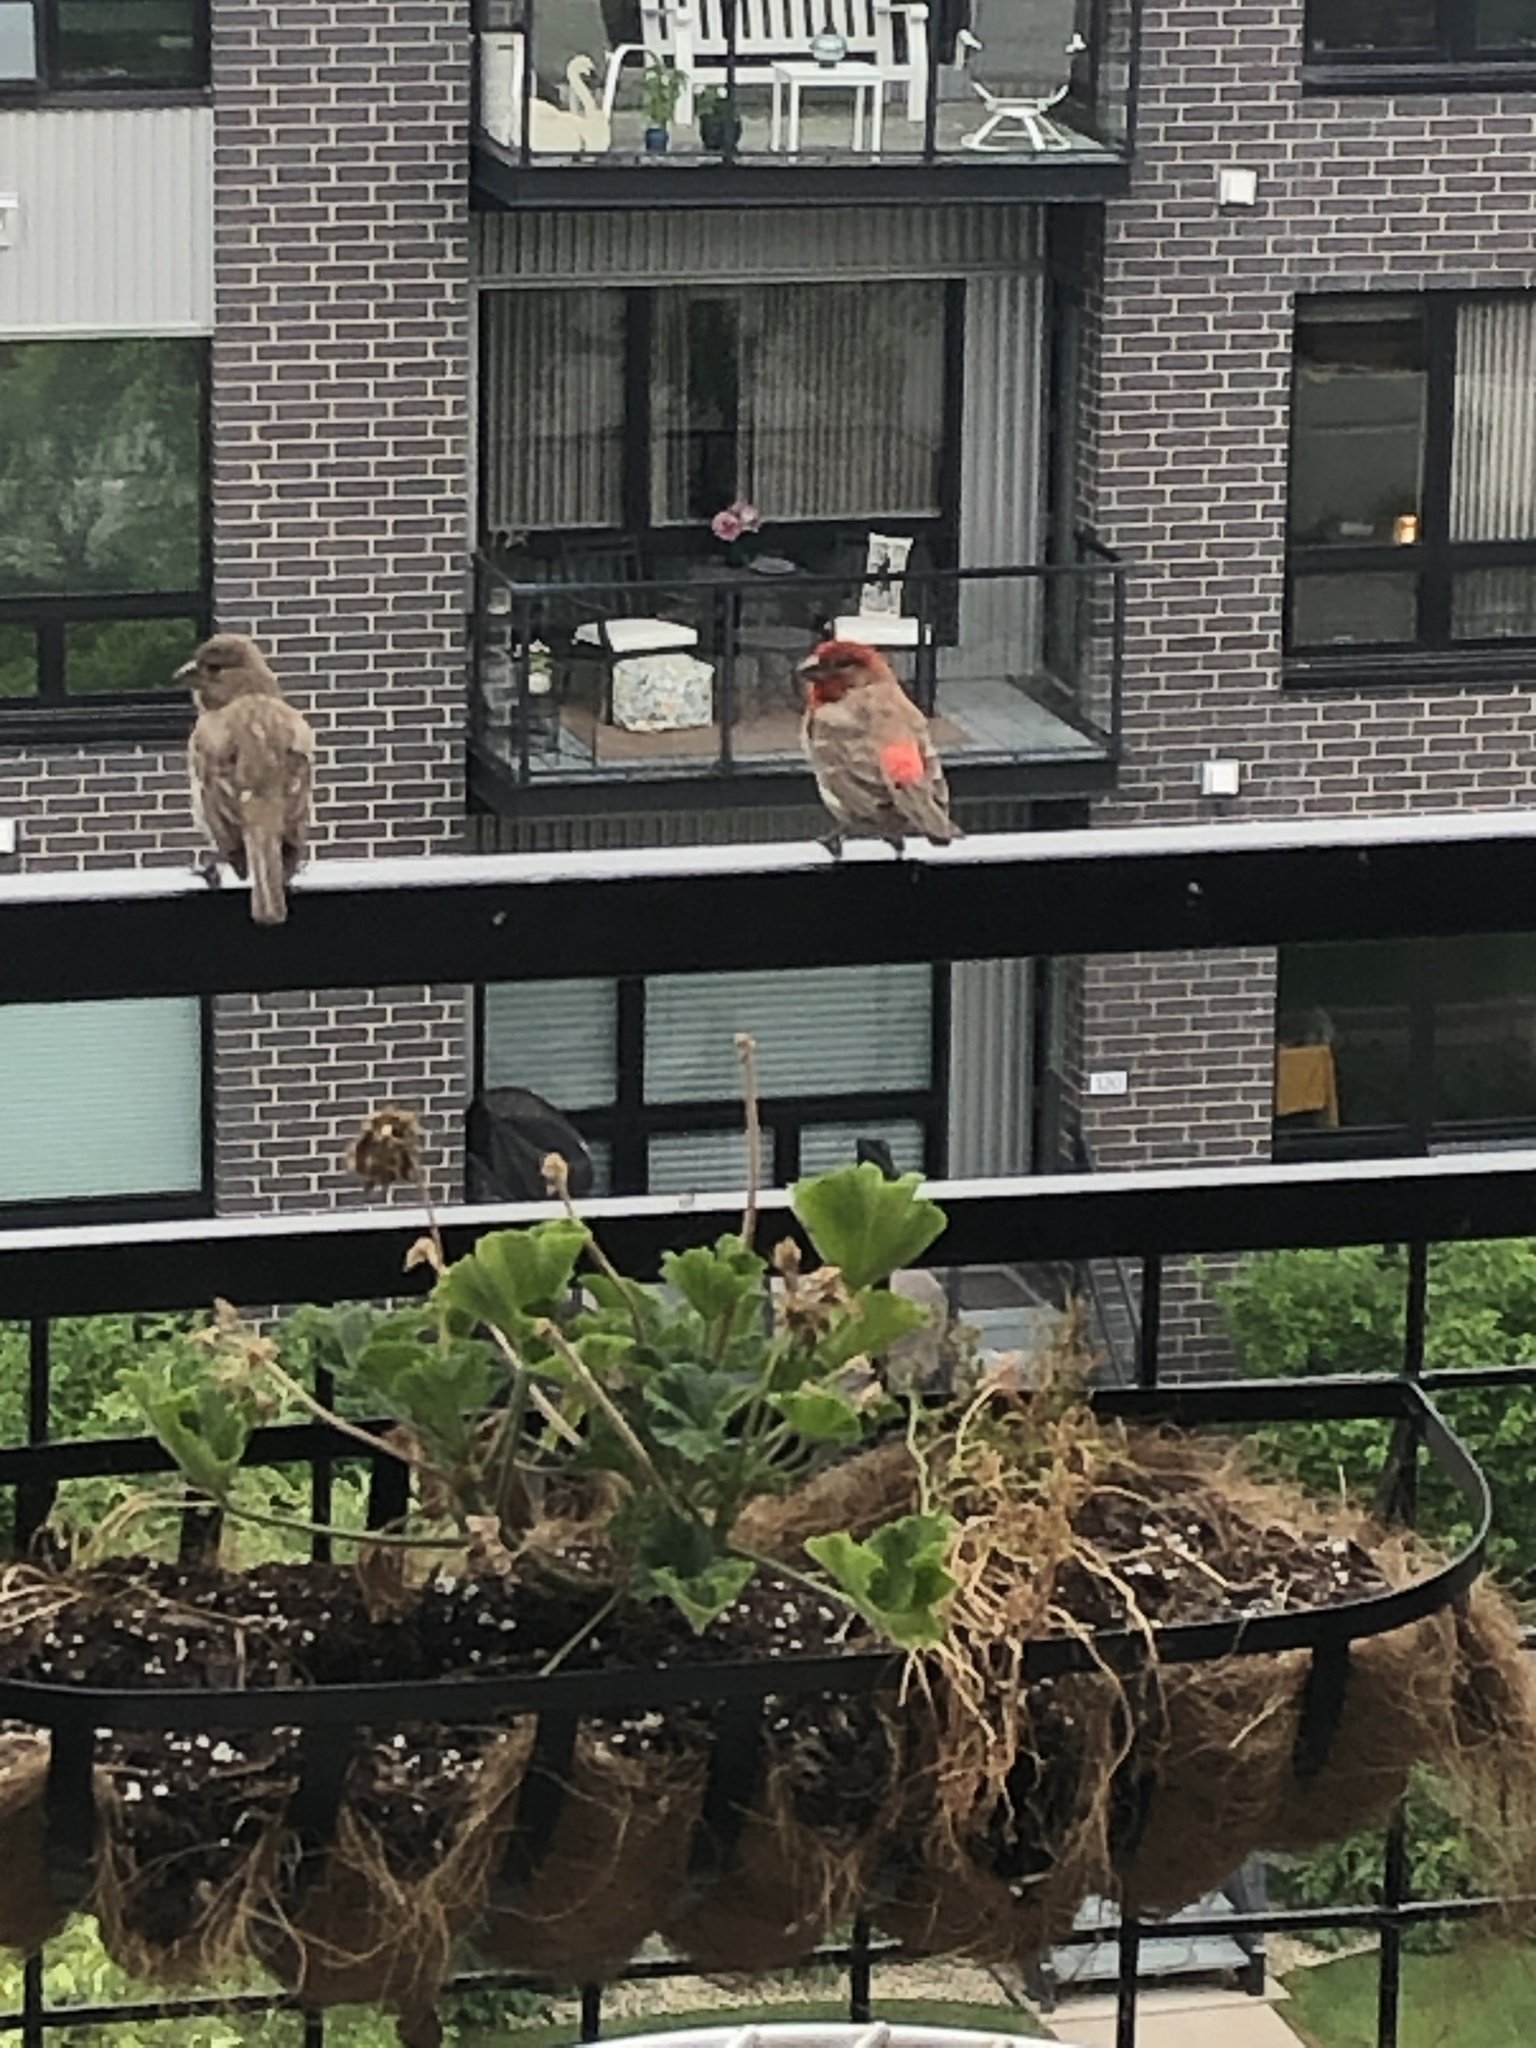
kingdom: Animalia
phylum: Chordata
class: Aves
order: Passeriformes
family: Fringillidae
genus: Haemorhous
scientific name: Haemorhous mexicanus
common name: House finch
